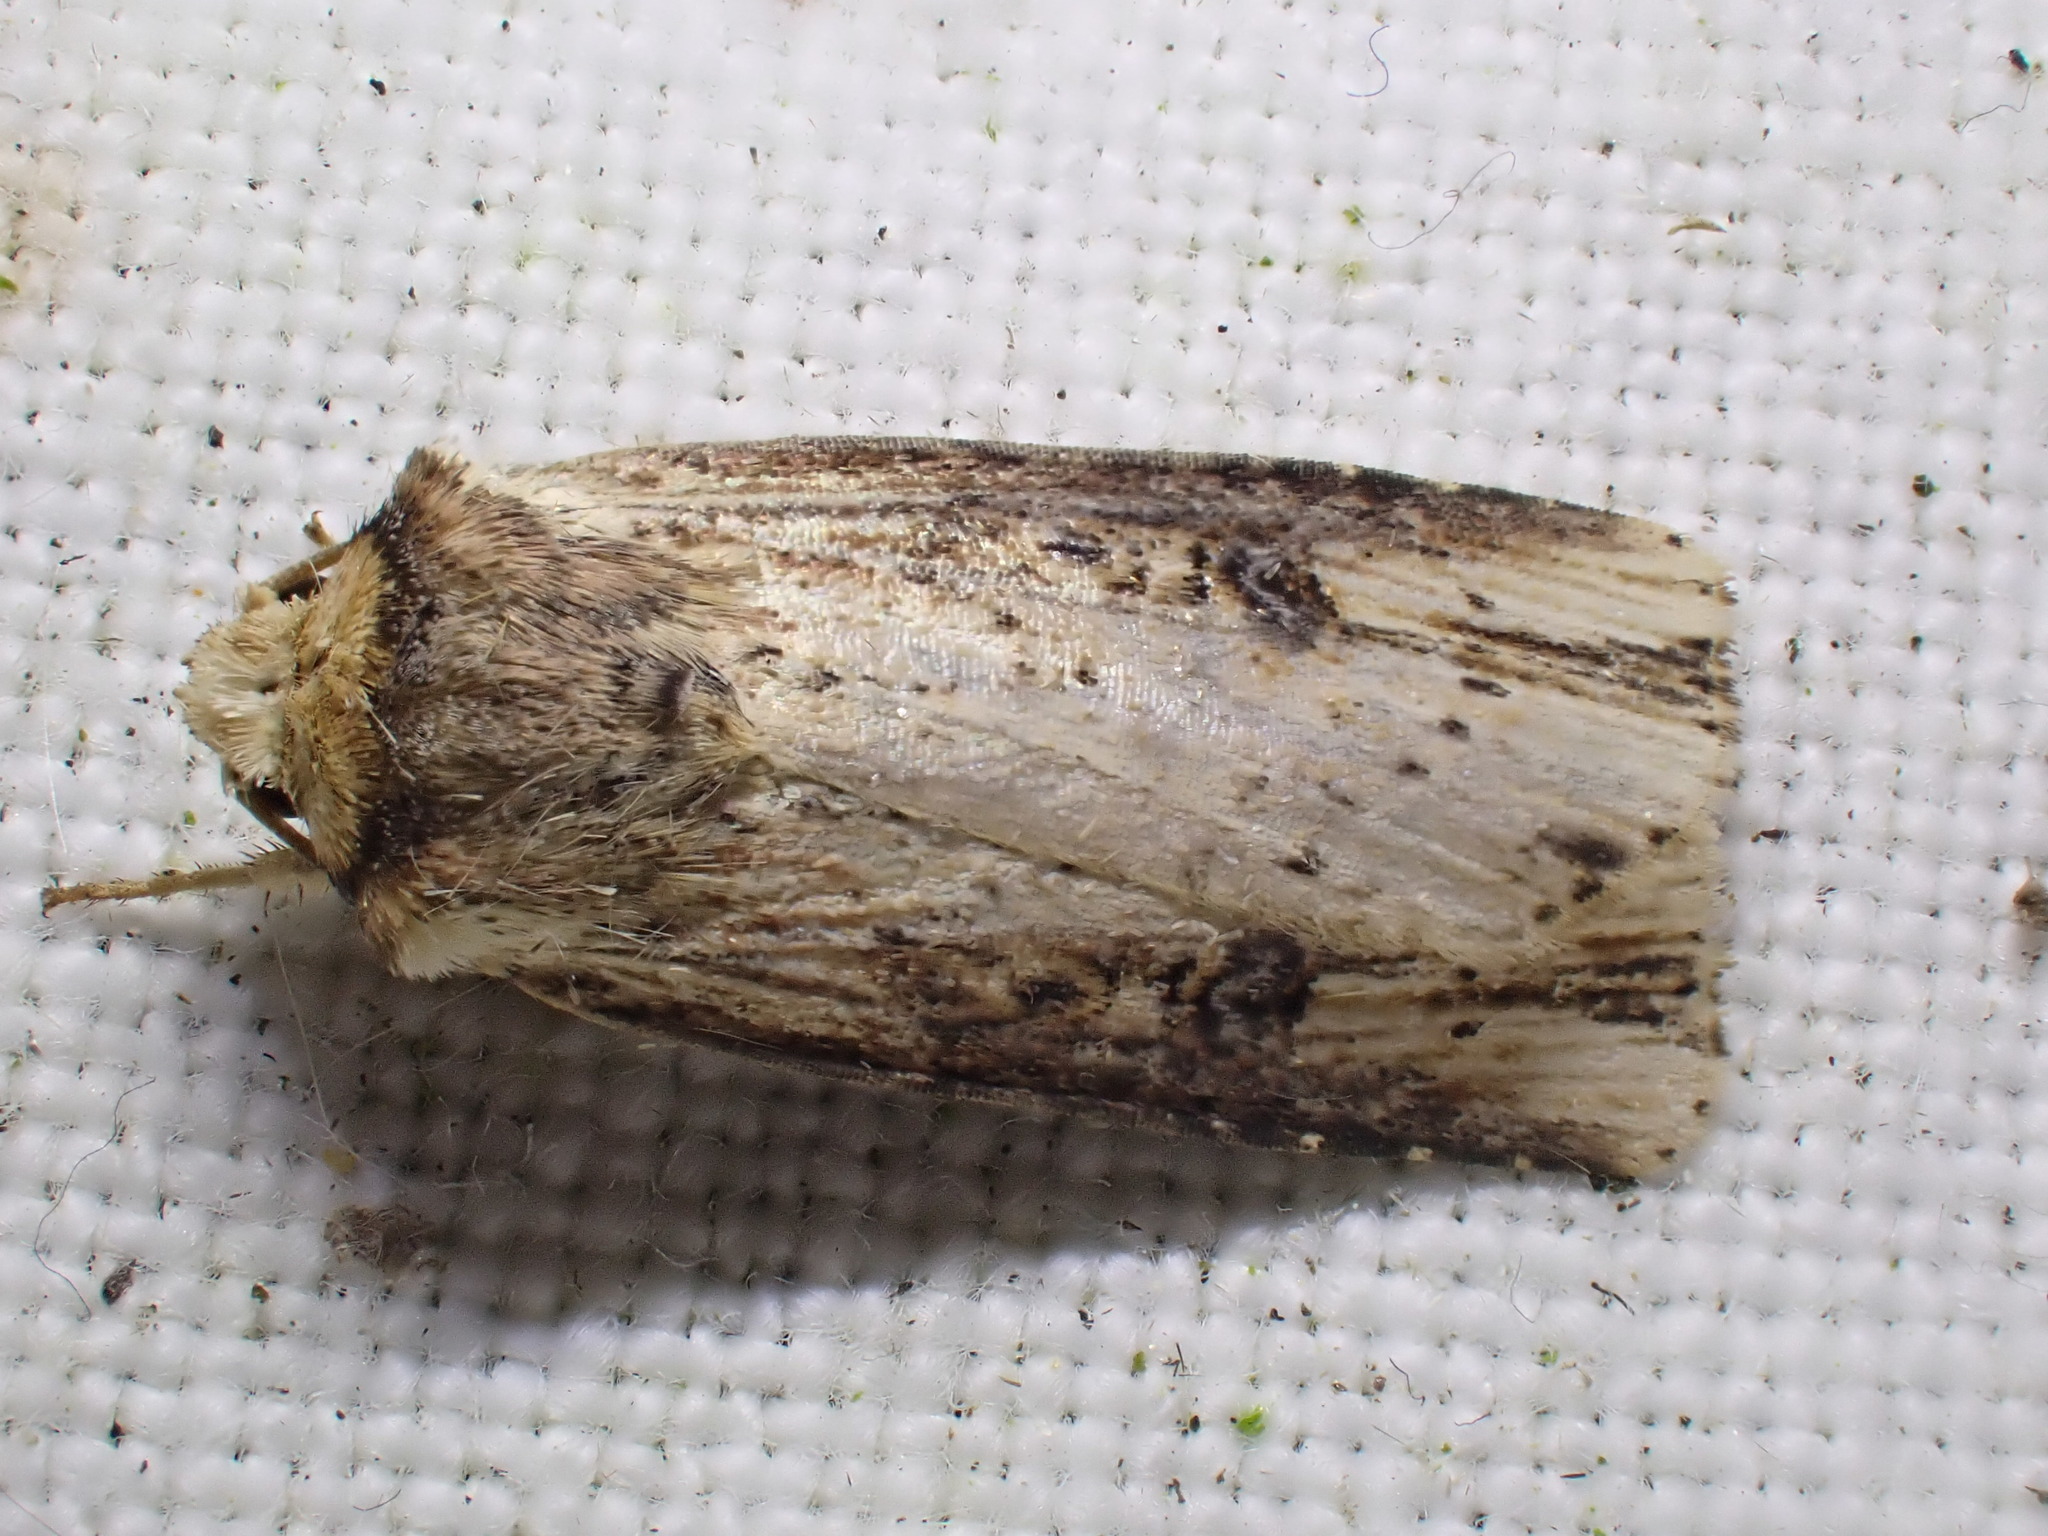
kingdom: Animalia
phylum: Arthropoda
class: Insecta
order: Lepidoptera
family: Noctuidae
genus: Axylia
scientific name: Axylia putris
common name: Flame
